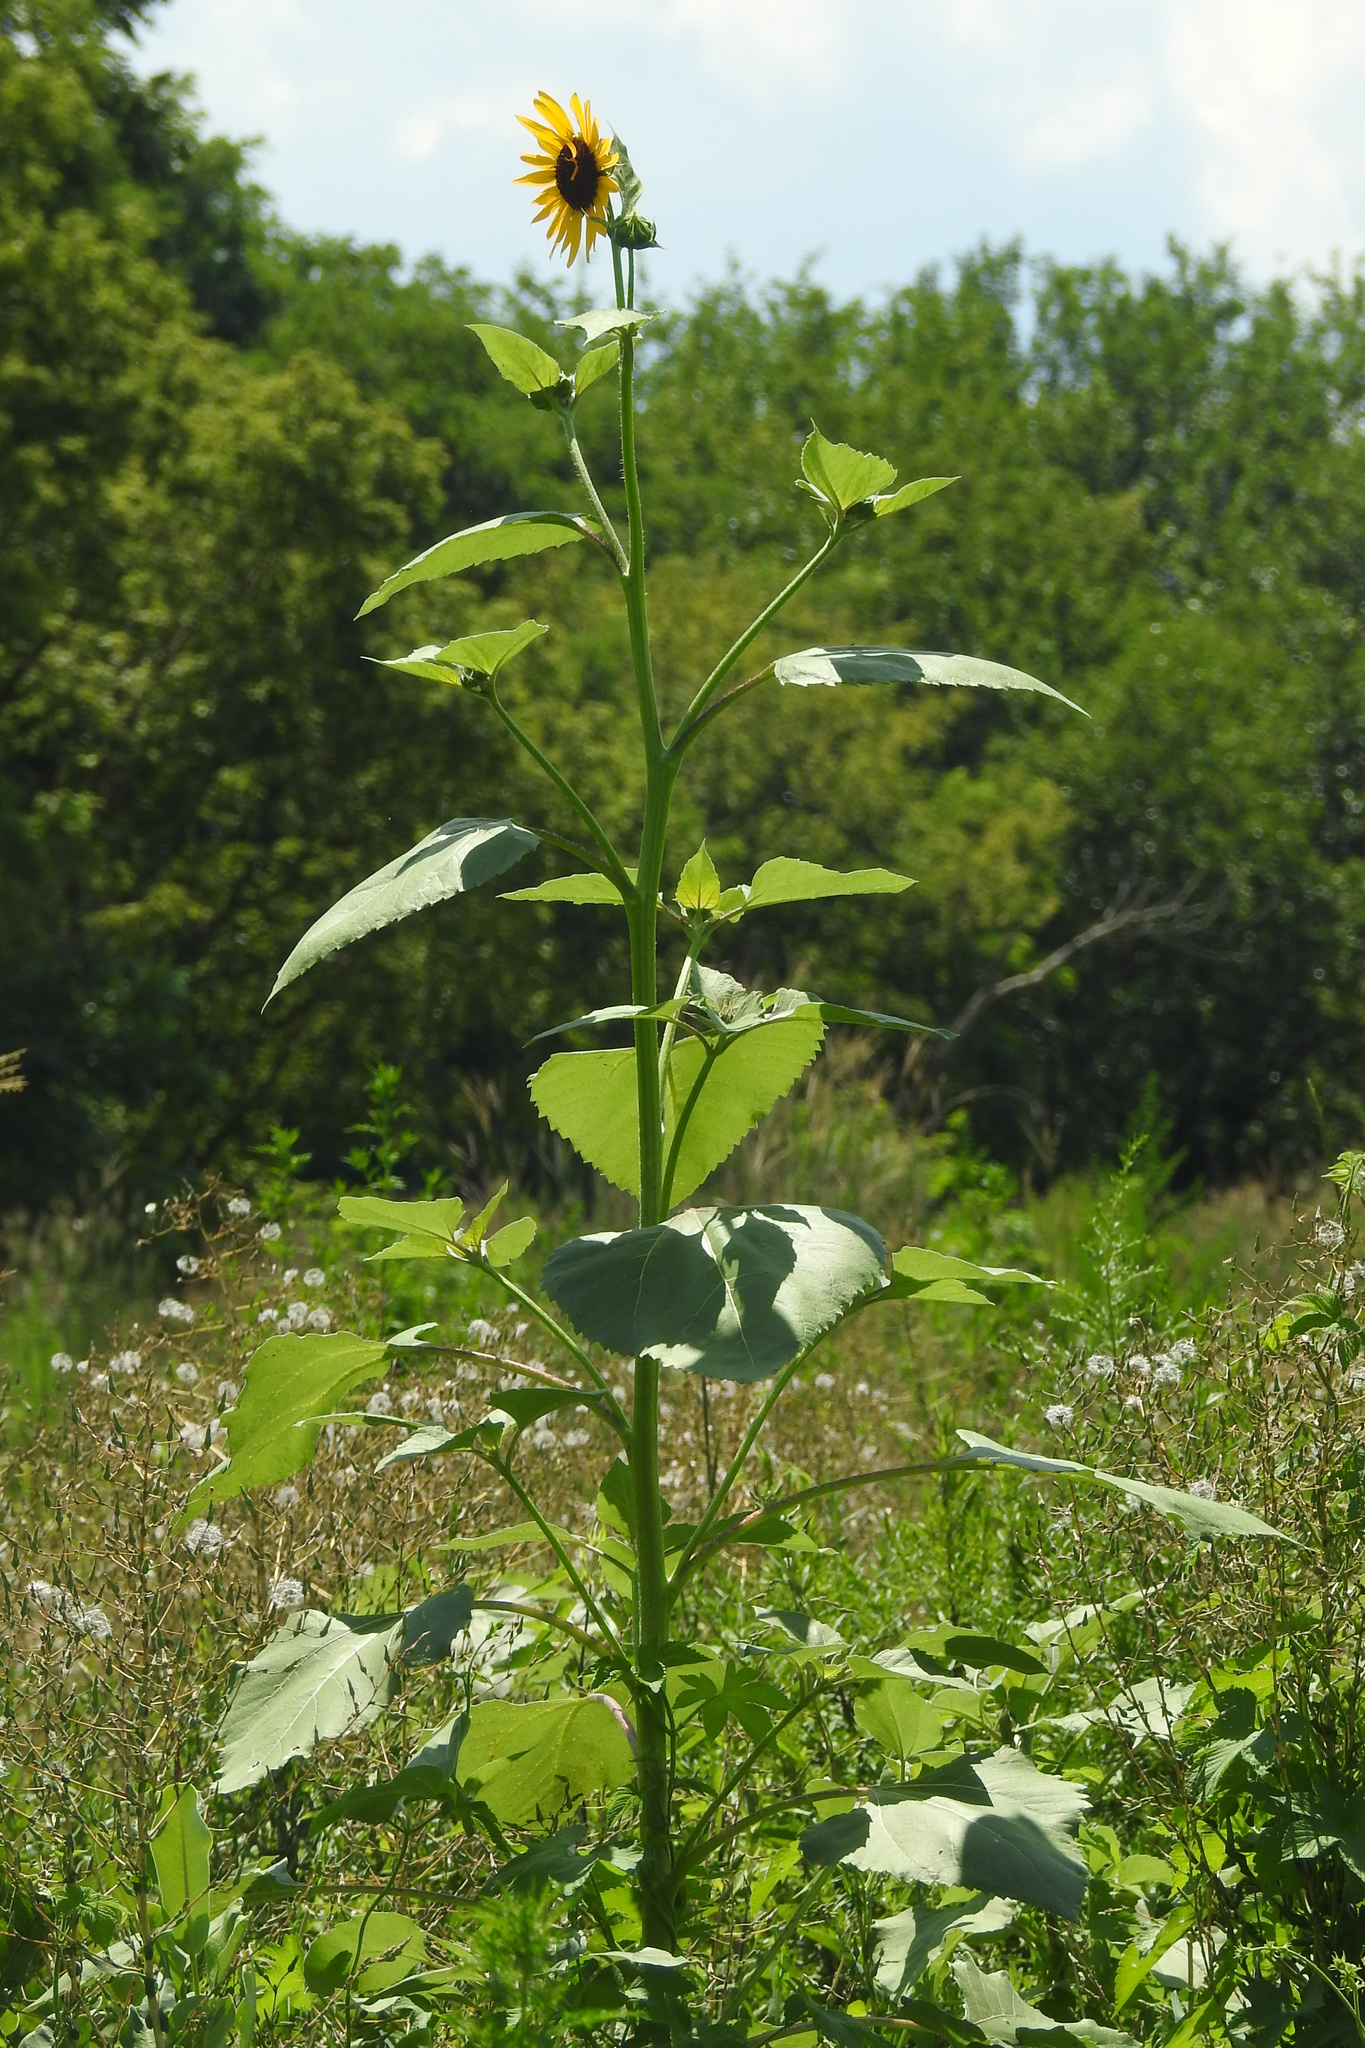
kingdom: Plantae
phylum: Tracheophyta
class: Magnoliopsida
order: Asterales
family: Asteraceae
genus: Helianthus
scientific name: Helianthus annuus
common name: Sunflower
